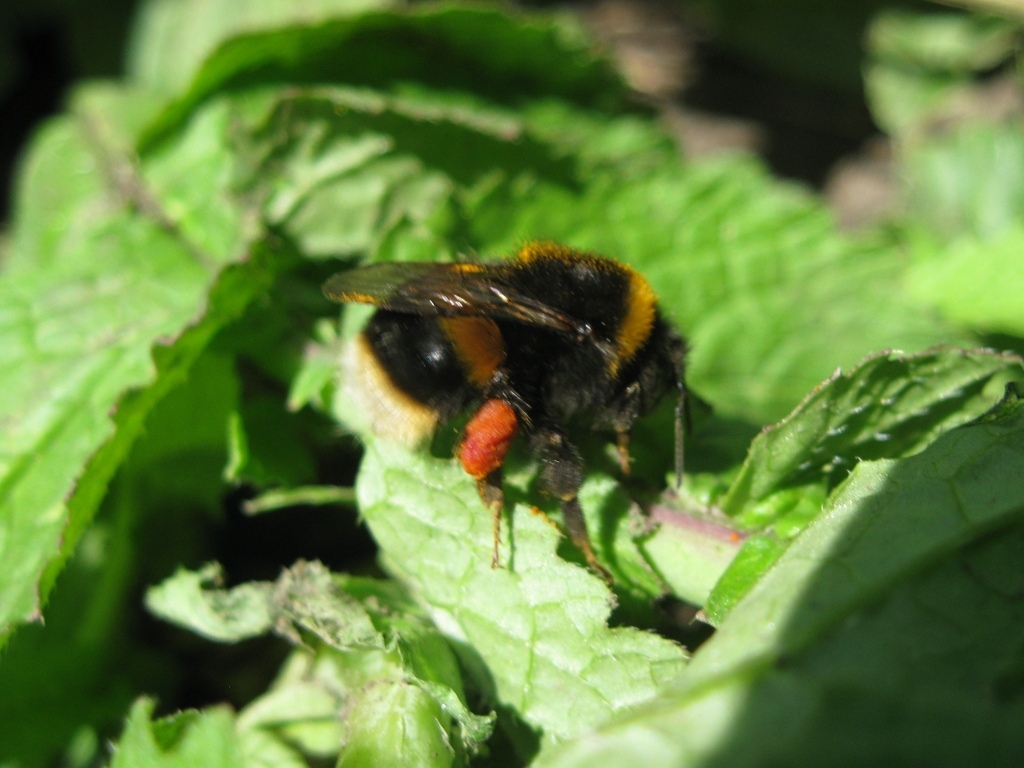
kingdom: Animalia
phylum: Arthropoda
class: Insecta
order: Hymenoptera
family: Apidae
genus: Bombus
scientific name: Bombus terrestris
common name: Buff-tailed bumblebee
